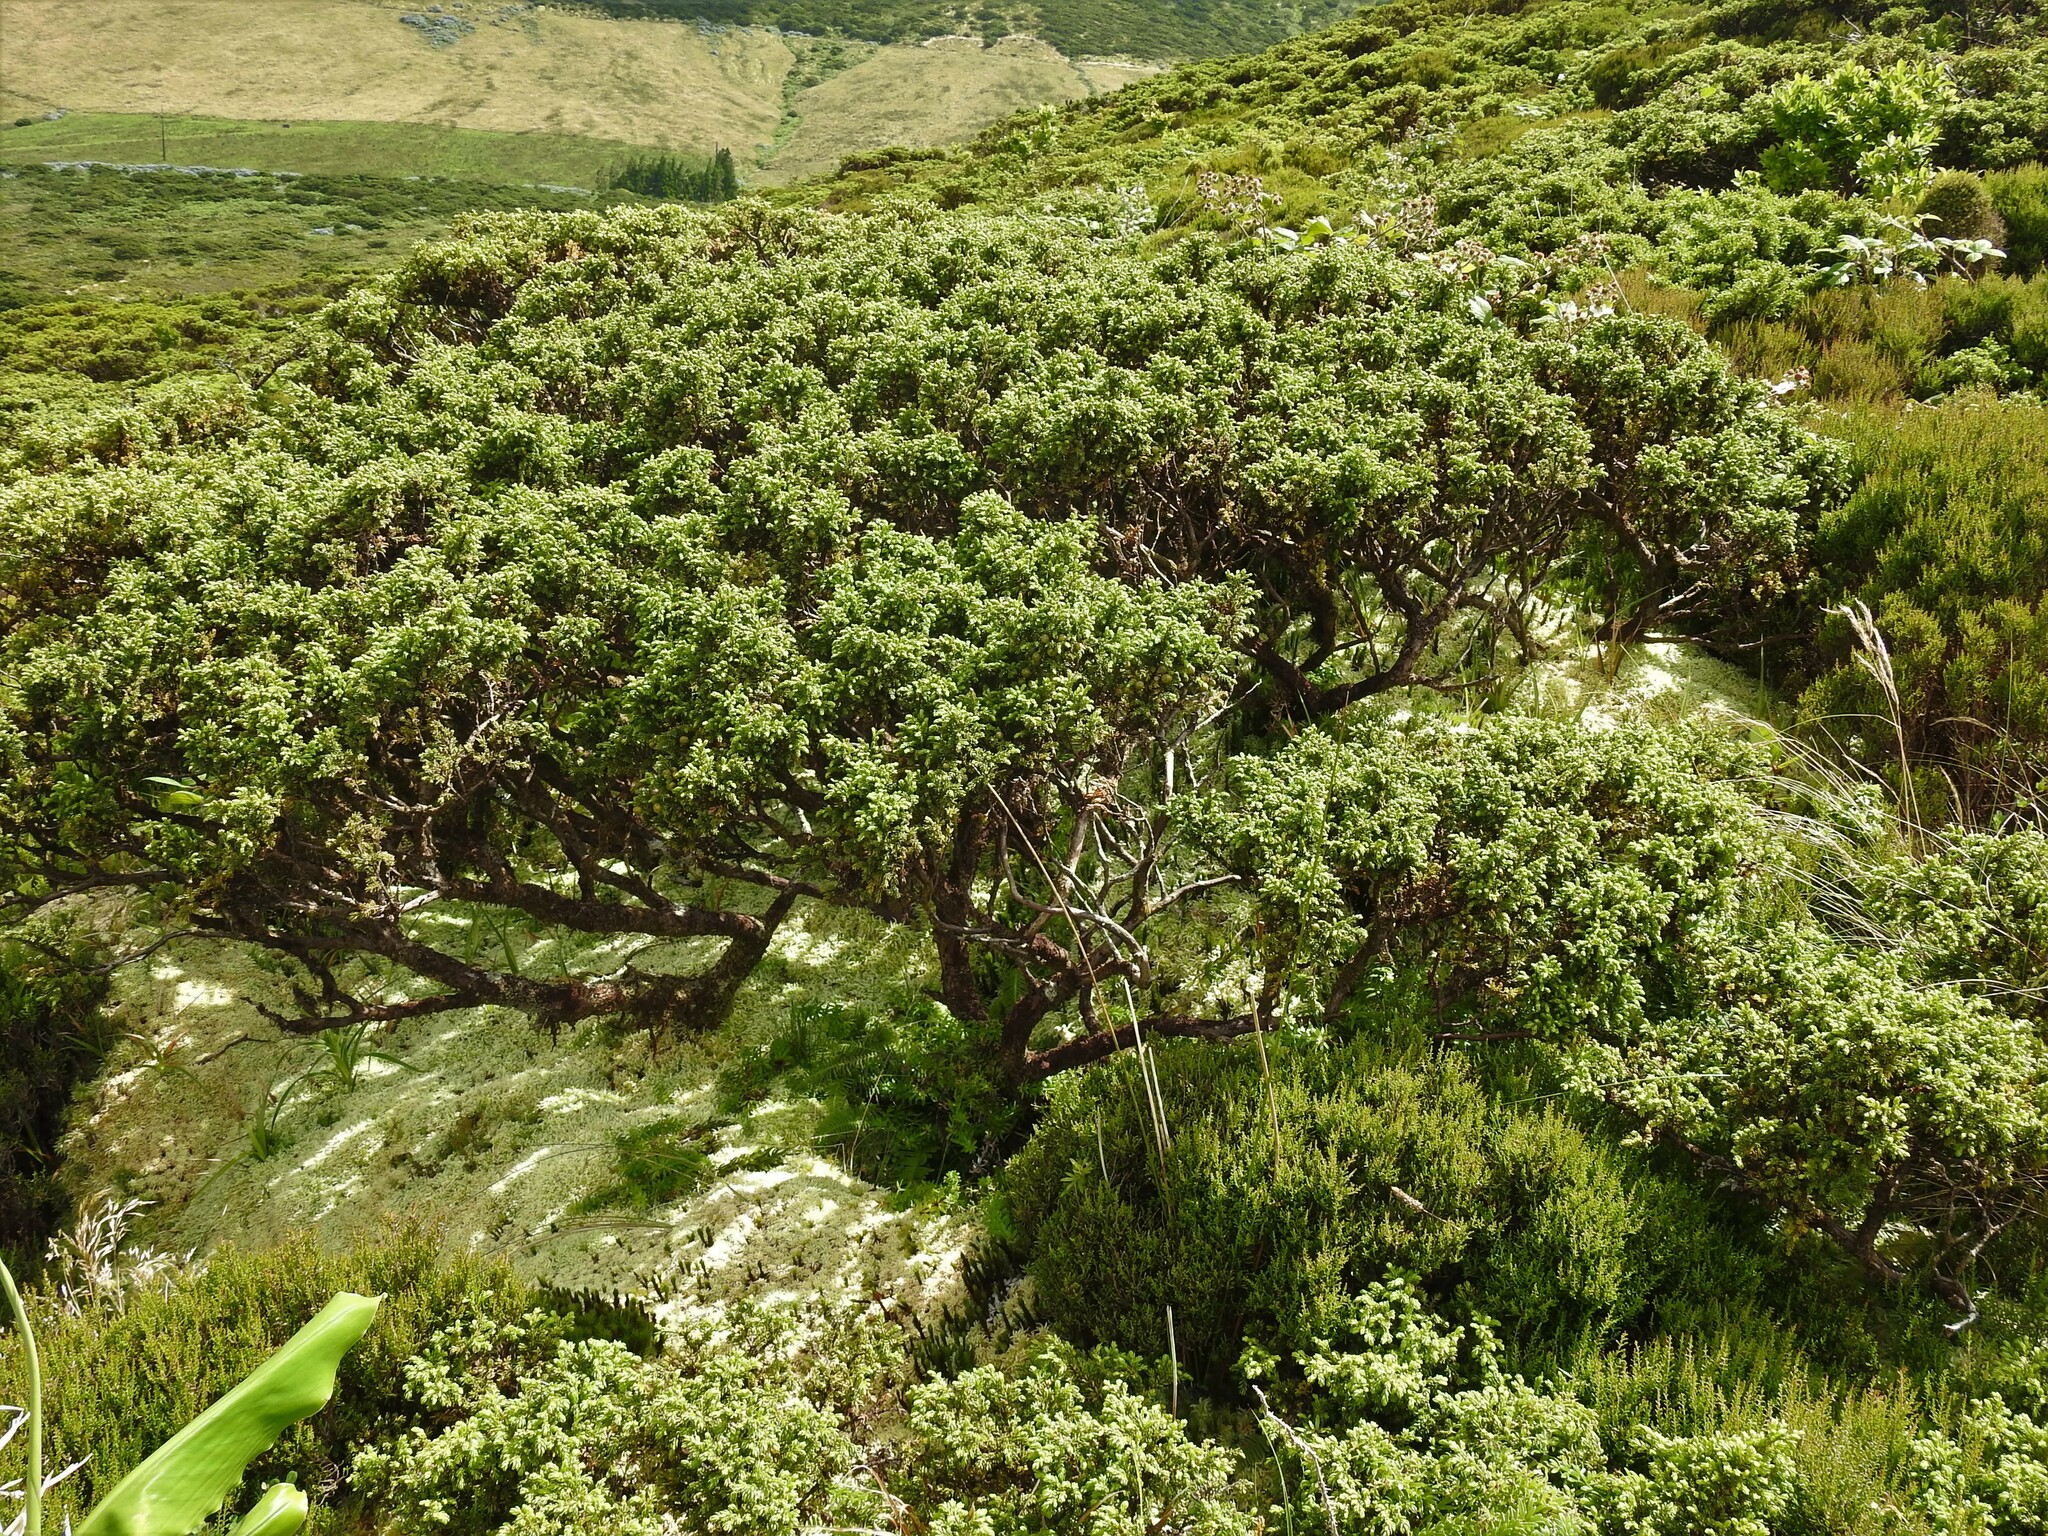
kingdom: Plantae
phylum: Tracheophyta
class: Pinopsida
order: Pinales
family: Cupressaceae
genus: Juniperus
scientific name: Juniperus brevifolia
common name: Azores juniper
